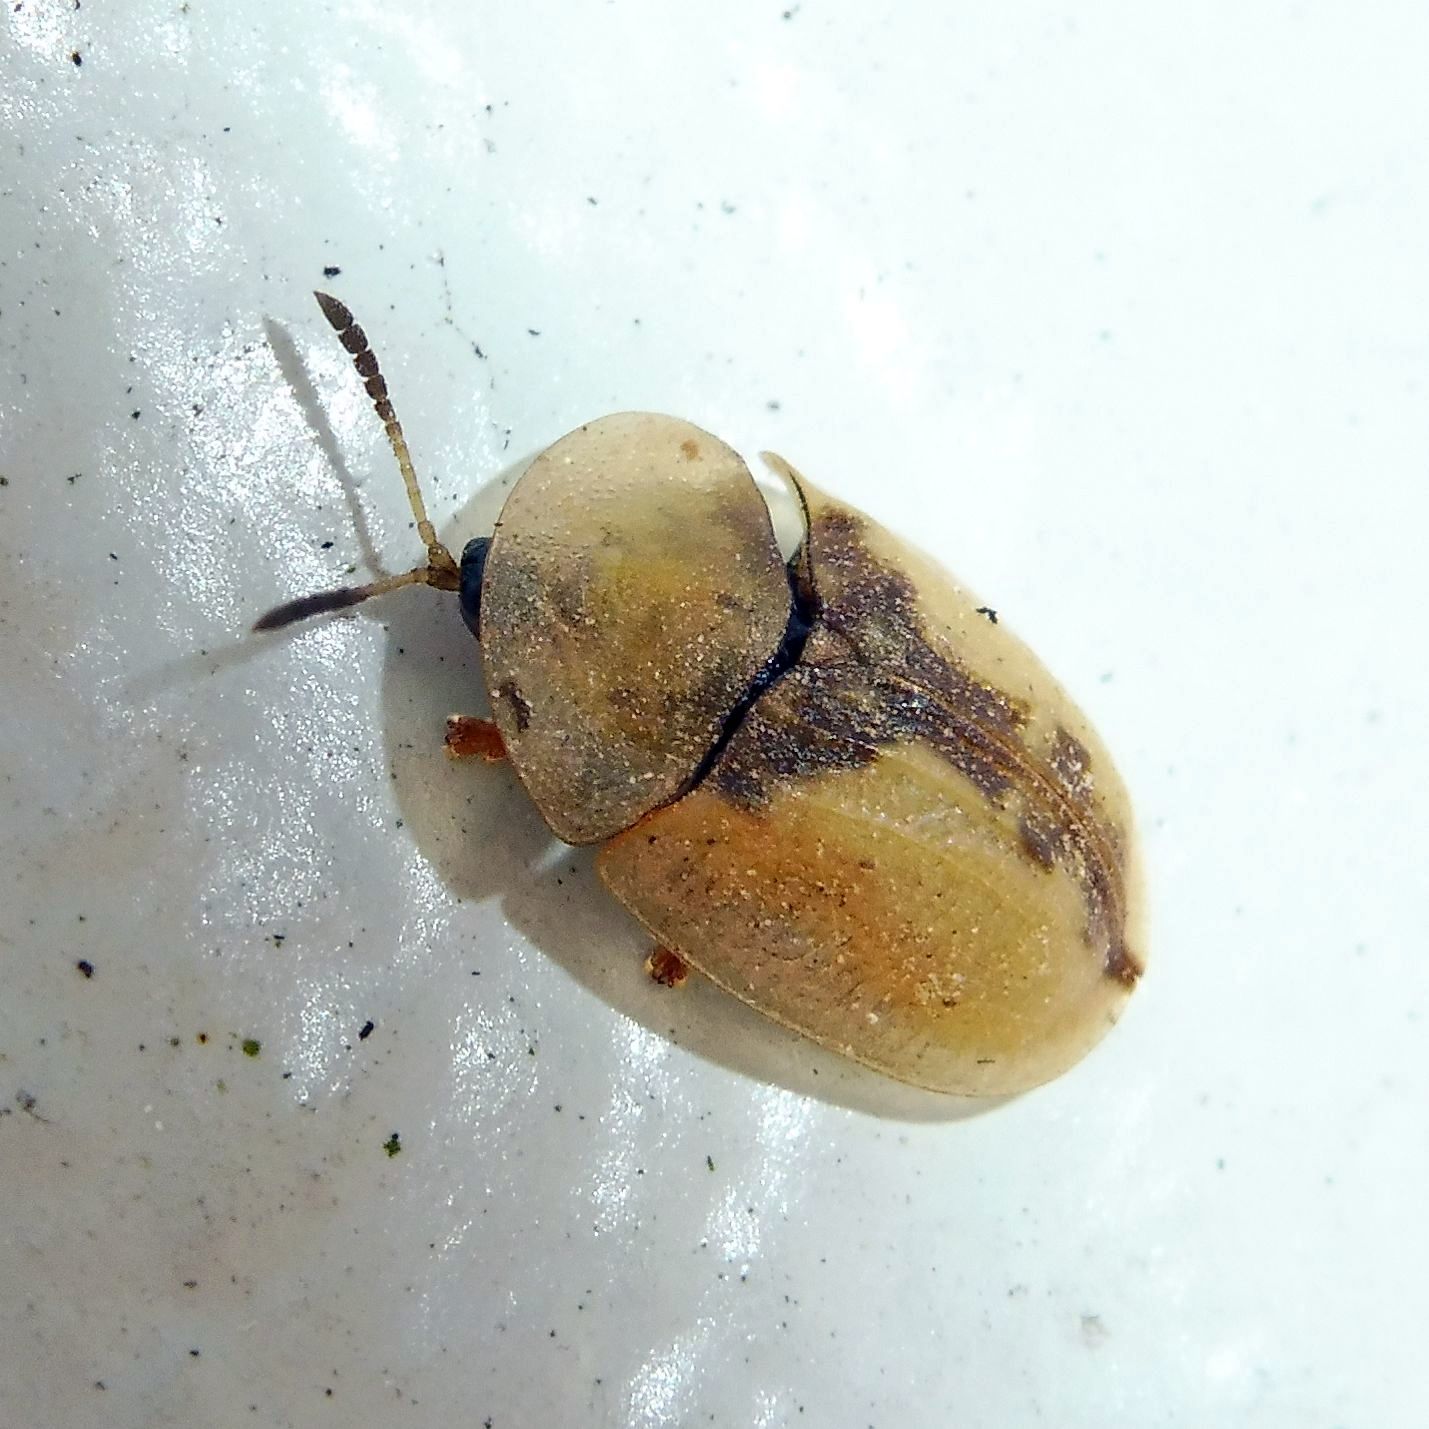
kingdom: Animalia
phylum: Arthropoda
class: Insecta
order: Coleoptera
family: Chrysomelidae
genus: Cassida
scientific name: Cassida vibex
